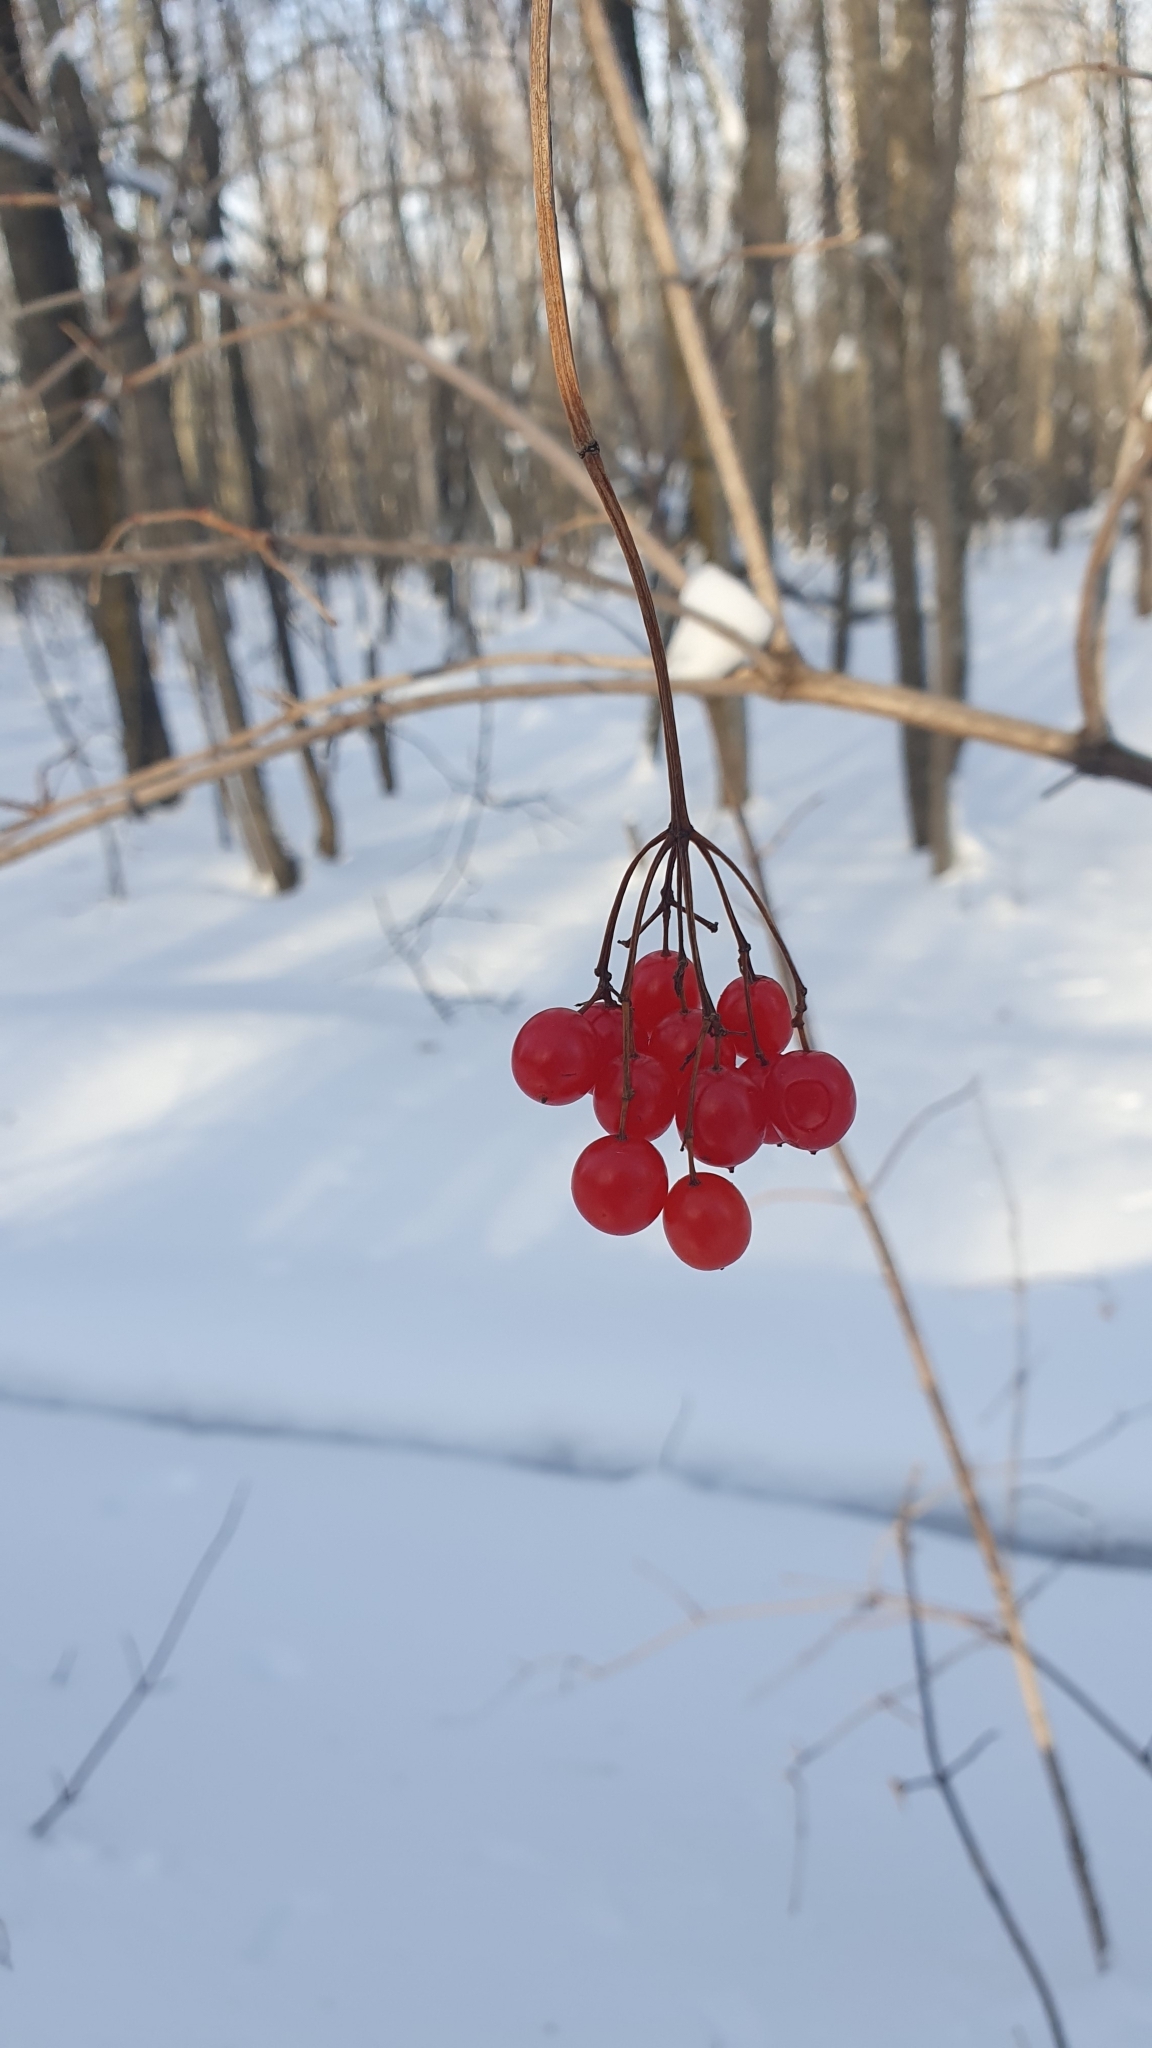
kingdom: Plantae
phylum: Tracheophyta
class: Magnoliopsida
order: Dipsacales
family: Viburnaceae
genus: Viburnum
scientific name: Viburnum opulus
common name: Guelder-rose
